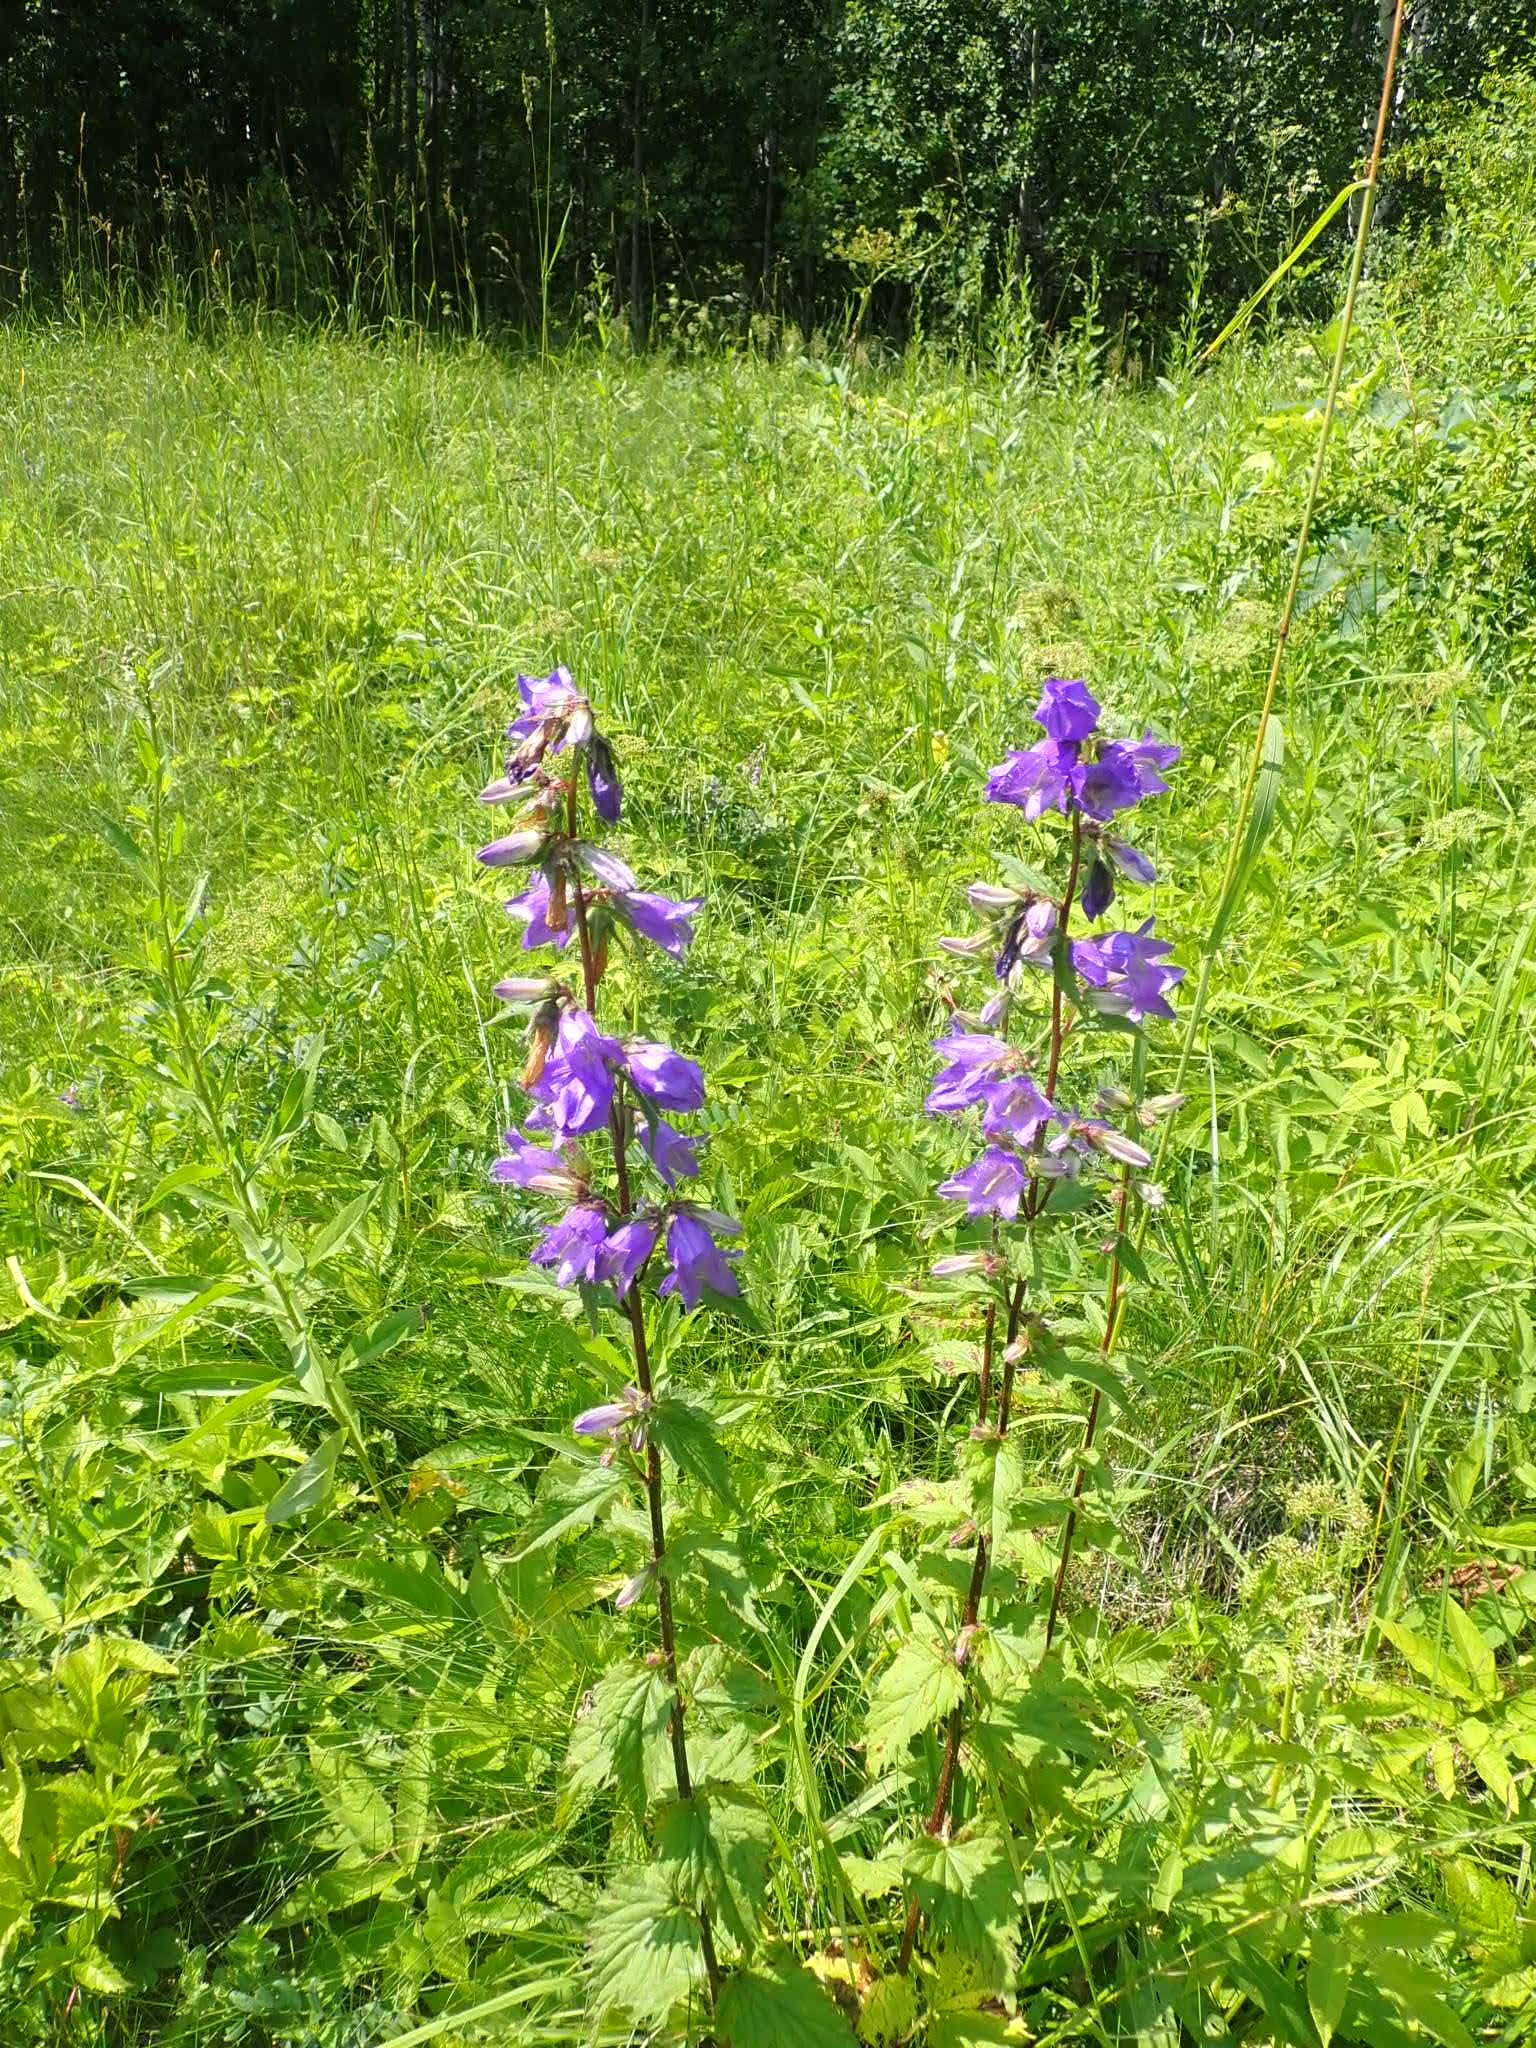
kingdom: Plantae
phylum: Tracheophyta
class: Magnoliopsida
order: Asterales
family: Campanulaceae
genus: Campanula
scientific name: Campanula trachelium
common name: Nettle-leaved bellflower
